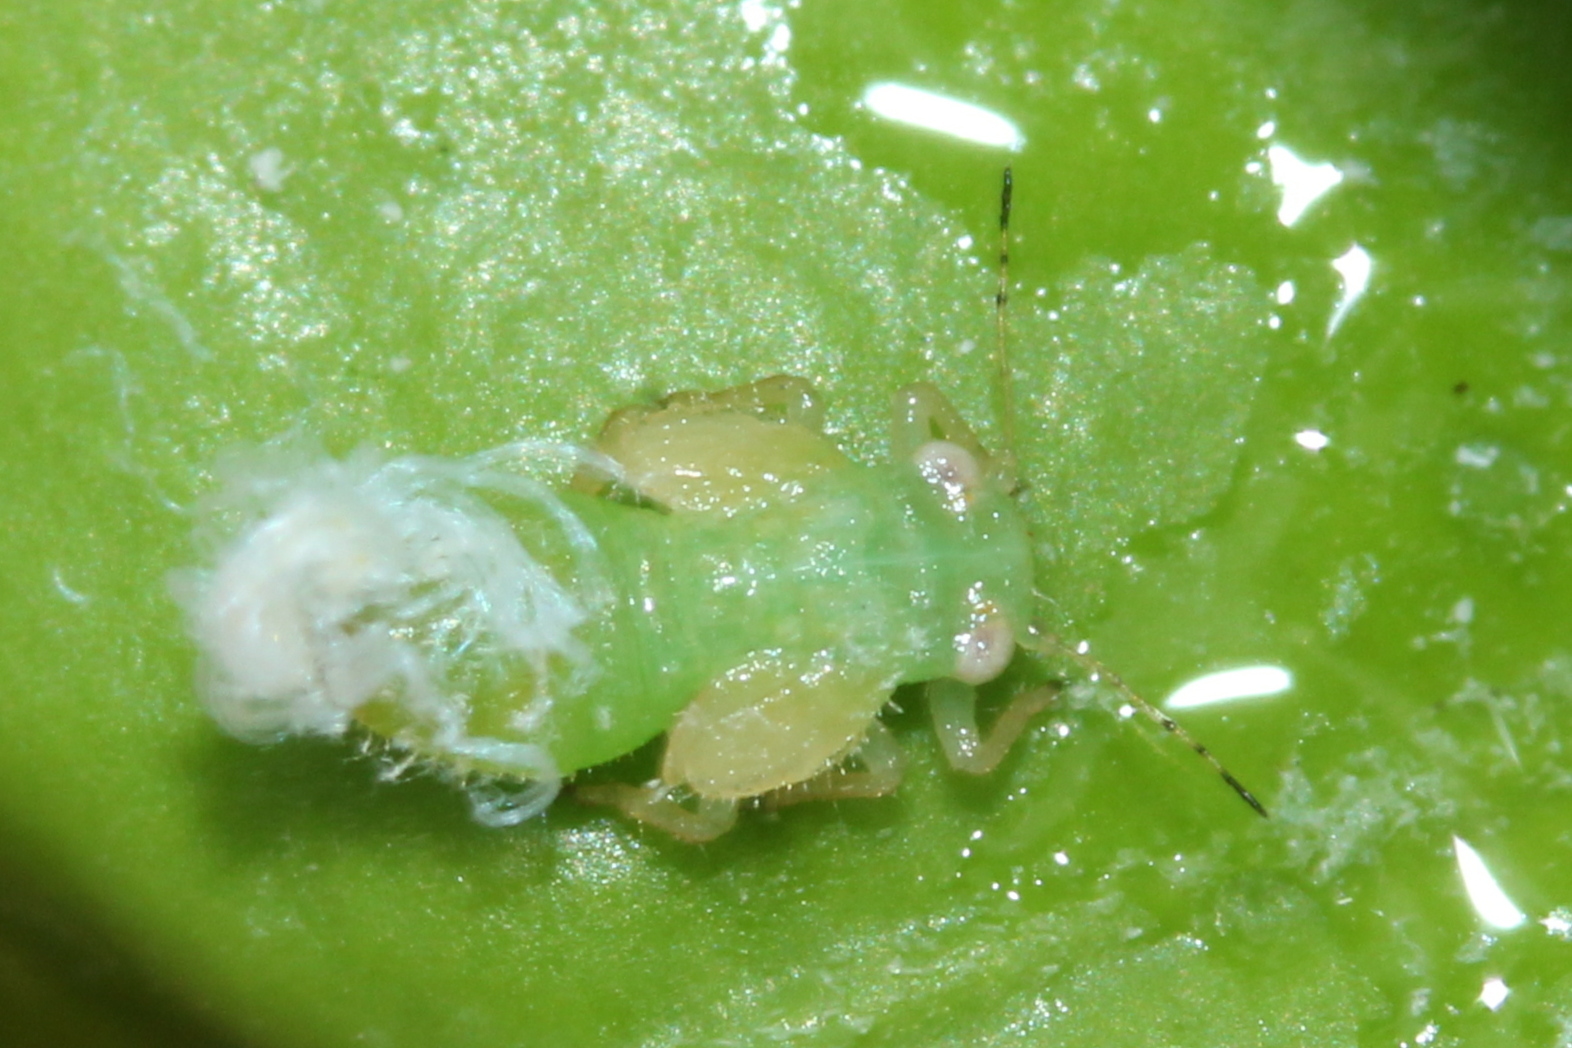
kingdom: Animalia
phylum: Arthropoda
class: Insecta
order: Hemiptera
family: Psyllidae
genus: Psylla
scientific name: Psylla buxi
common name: Boxwood psyllid
